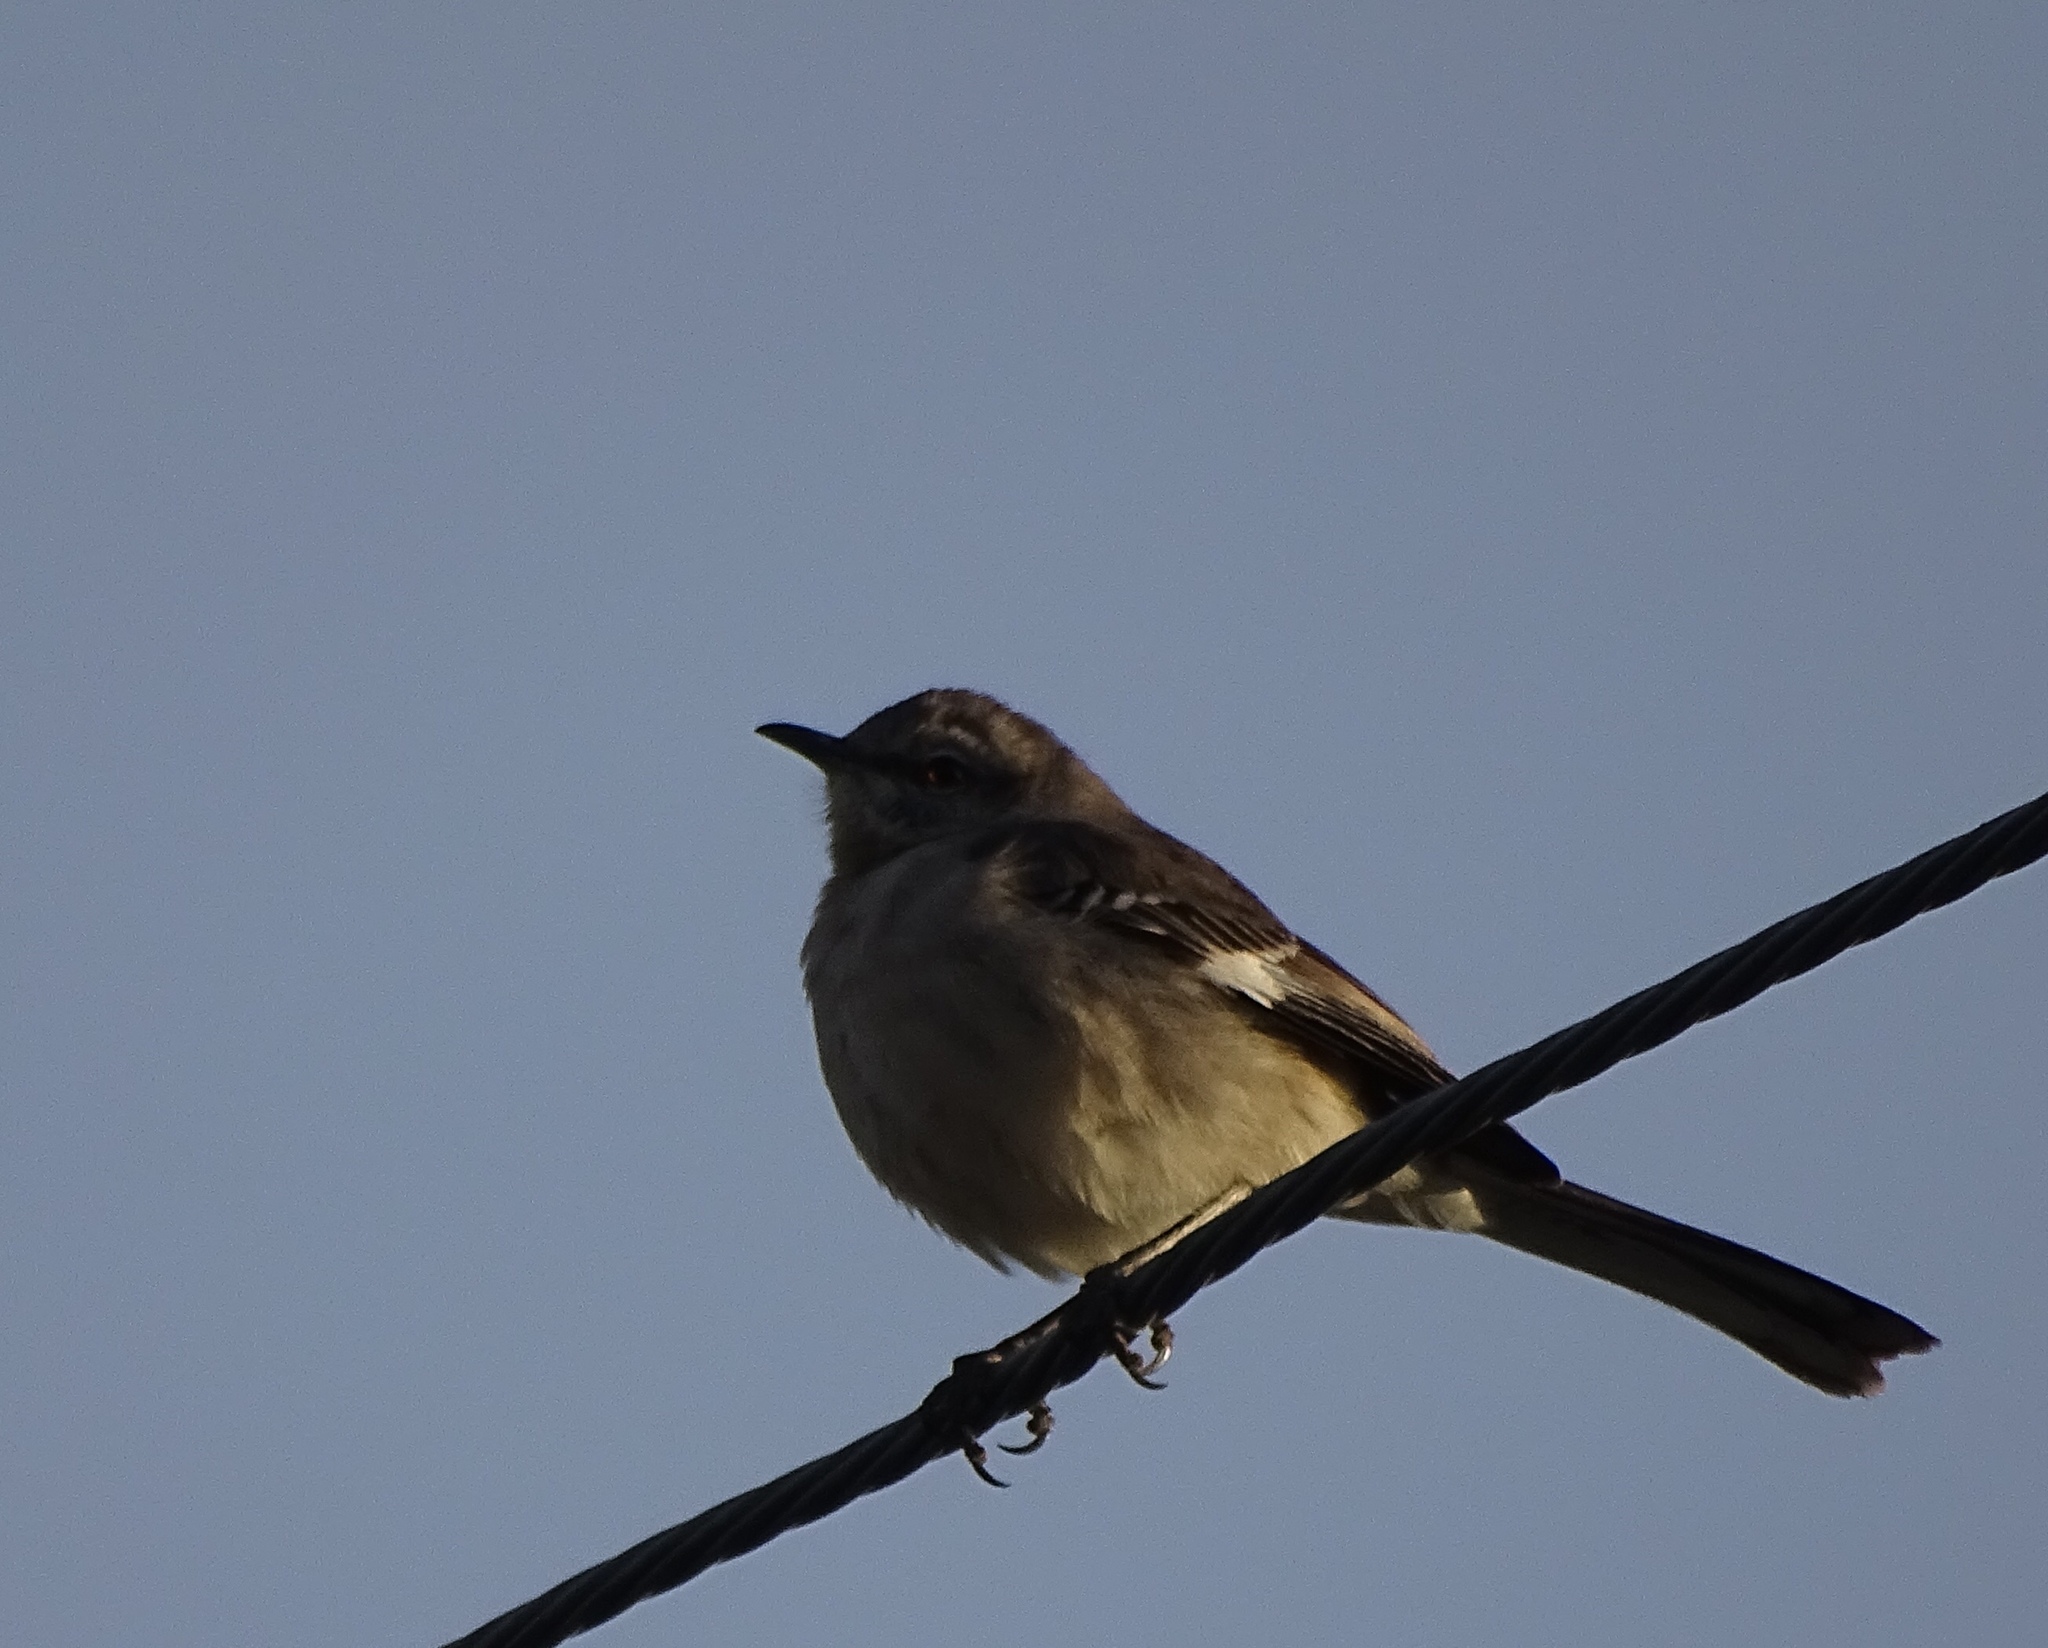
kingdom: Animalia
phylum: Chordata
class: Aves
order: Passeriformes
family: Mimidae
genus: Mimus
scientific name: Mimus polyglottos
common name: Northern mockingbird
